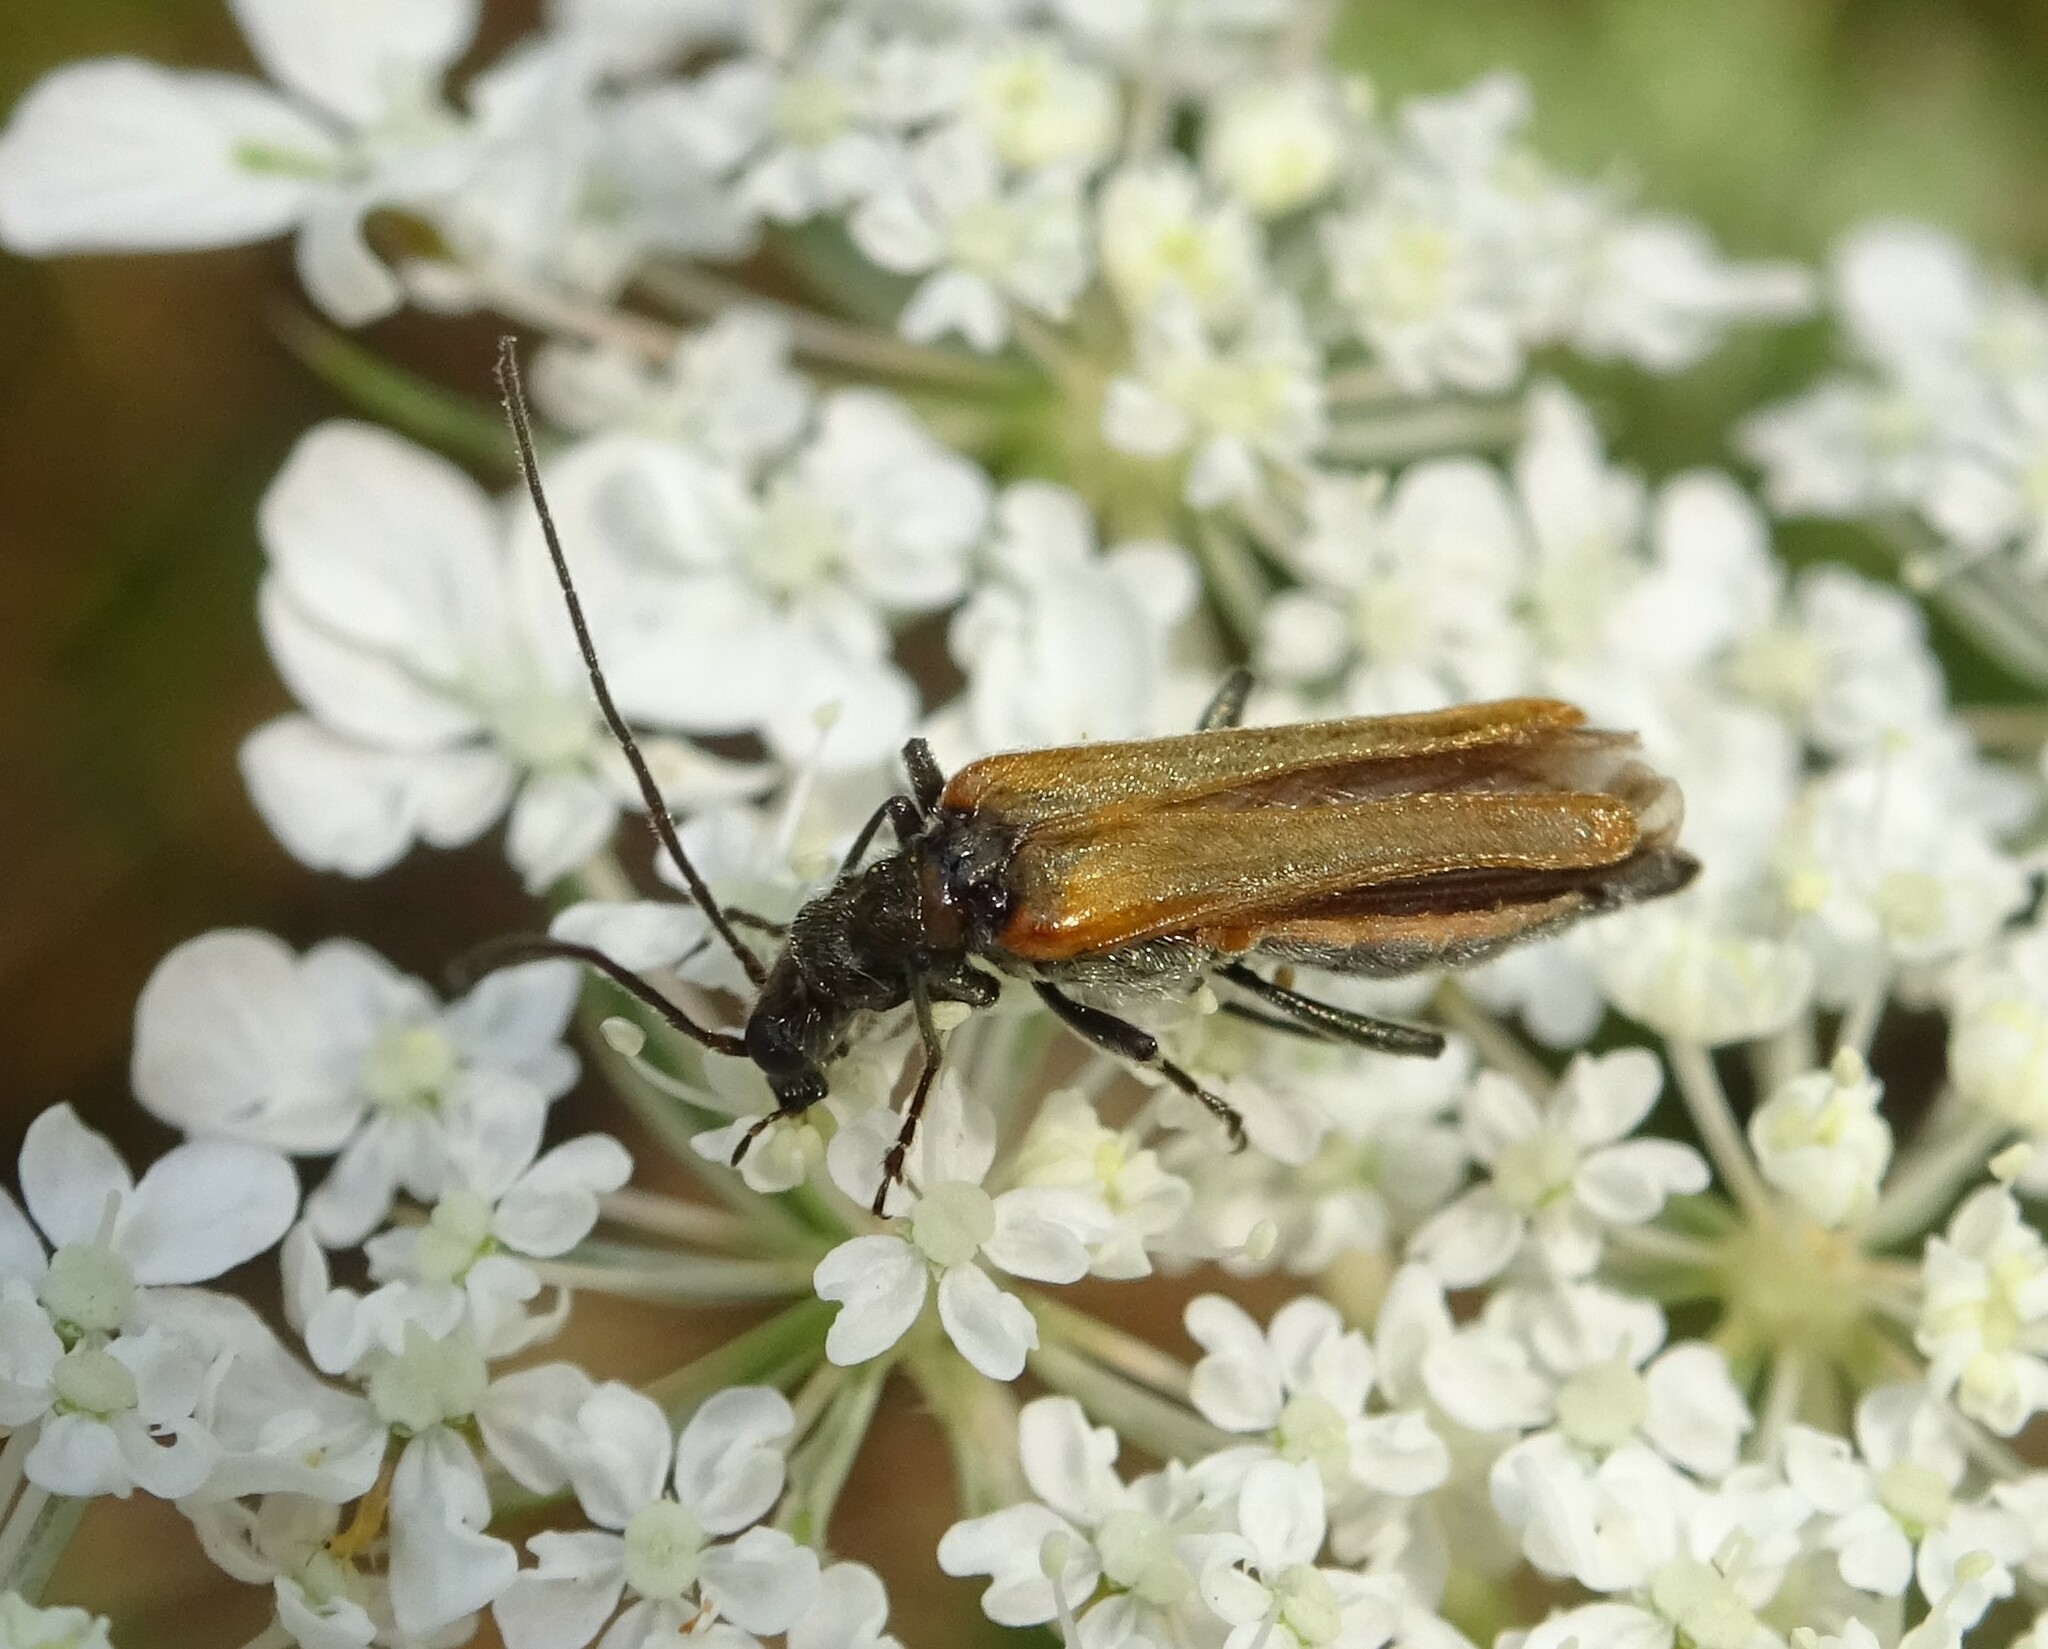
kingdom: Animalia
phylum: Arthropoda
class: Insecta
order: Coleoptera
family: Oedemeridae
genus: Oedemera
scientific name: Oedemera femorata
